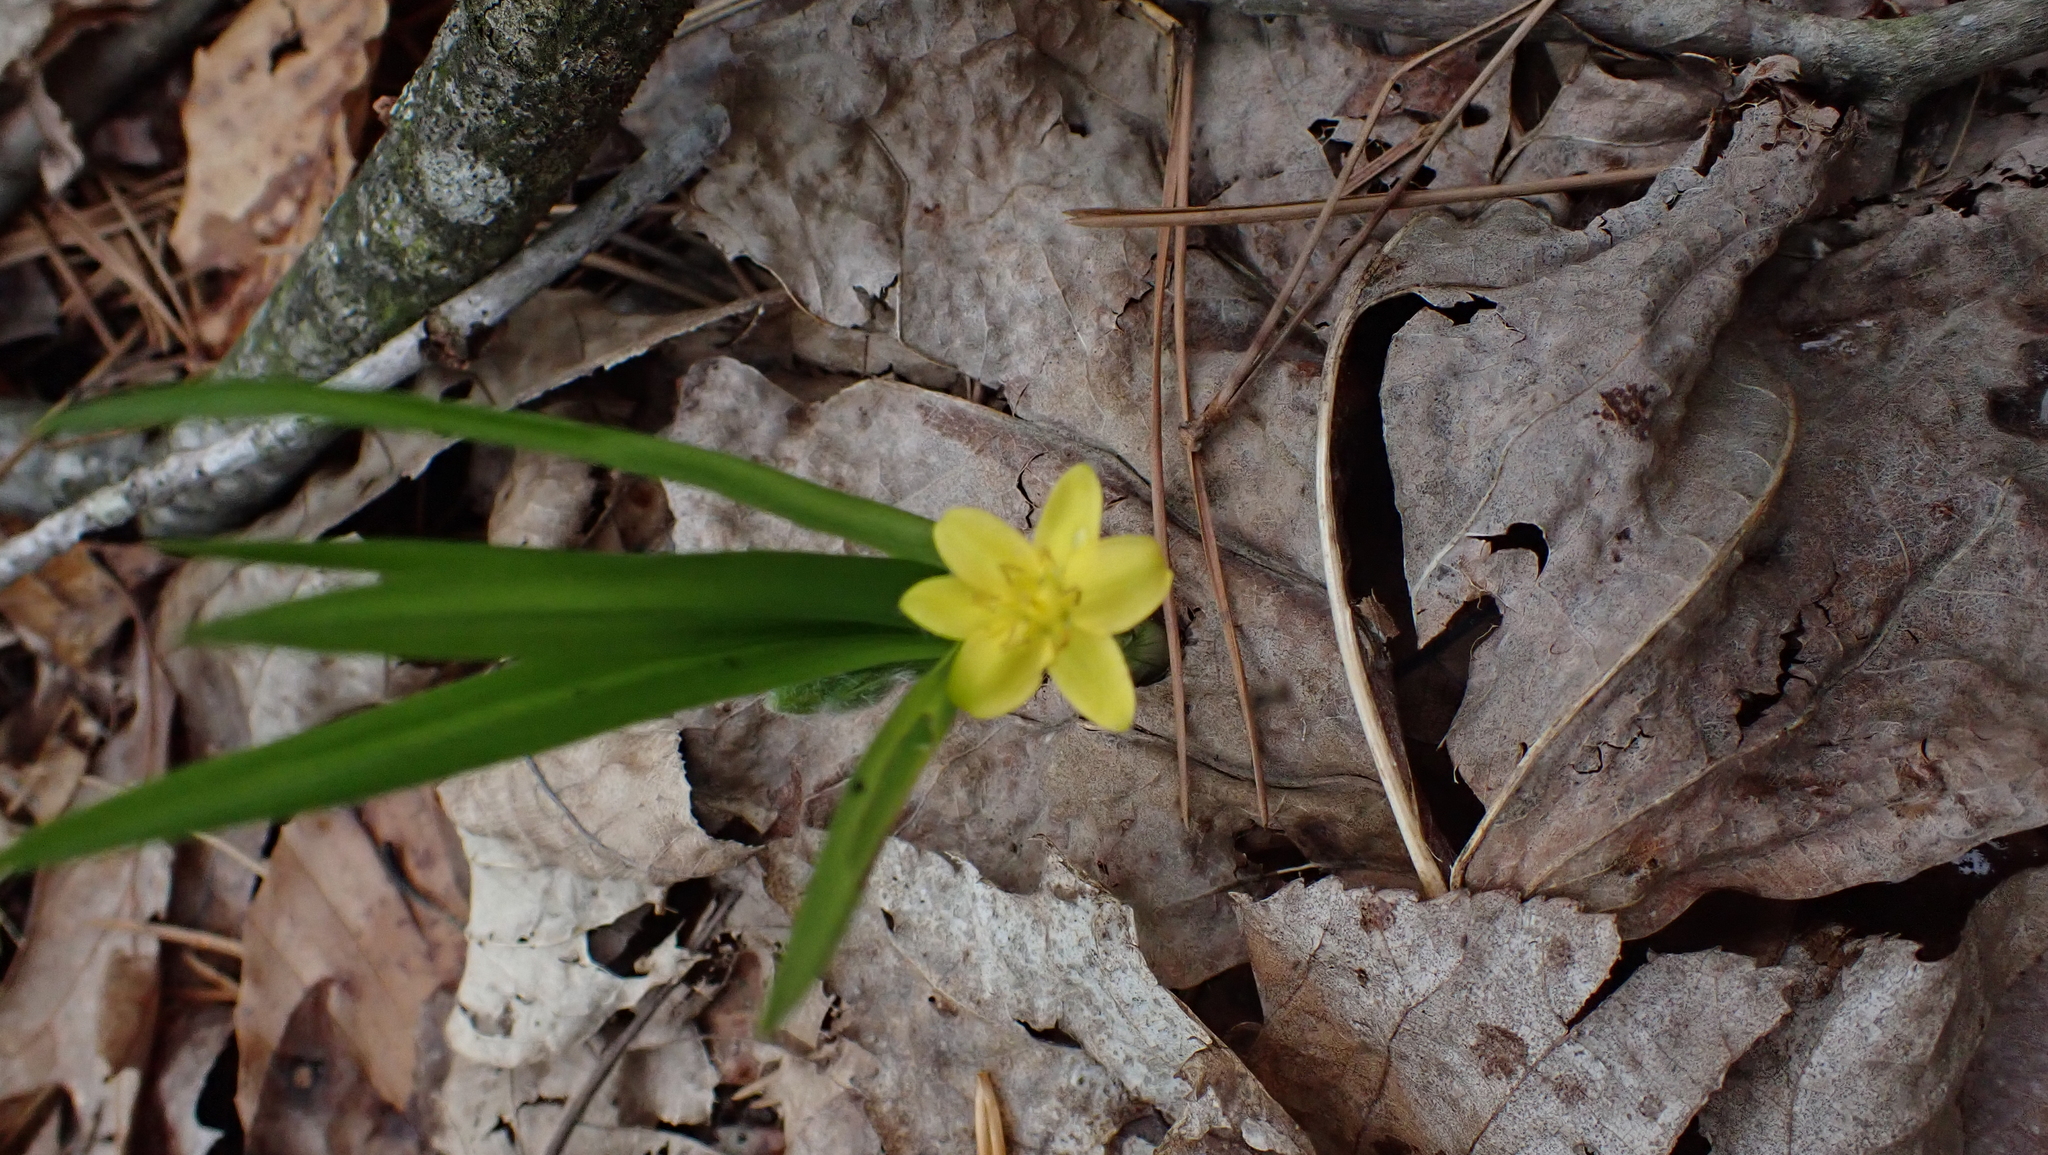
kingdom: Plantae
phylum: Tracheophyta
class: Liliopsida
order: Asparagales
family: Hypoxidaceae
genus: Hypoxis
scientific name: Hypoxis hirsuta
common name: Common goldstar
